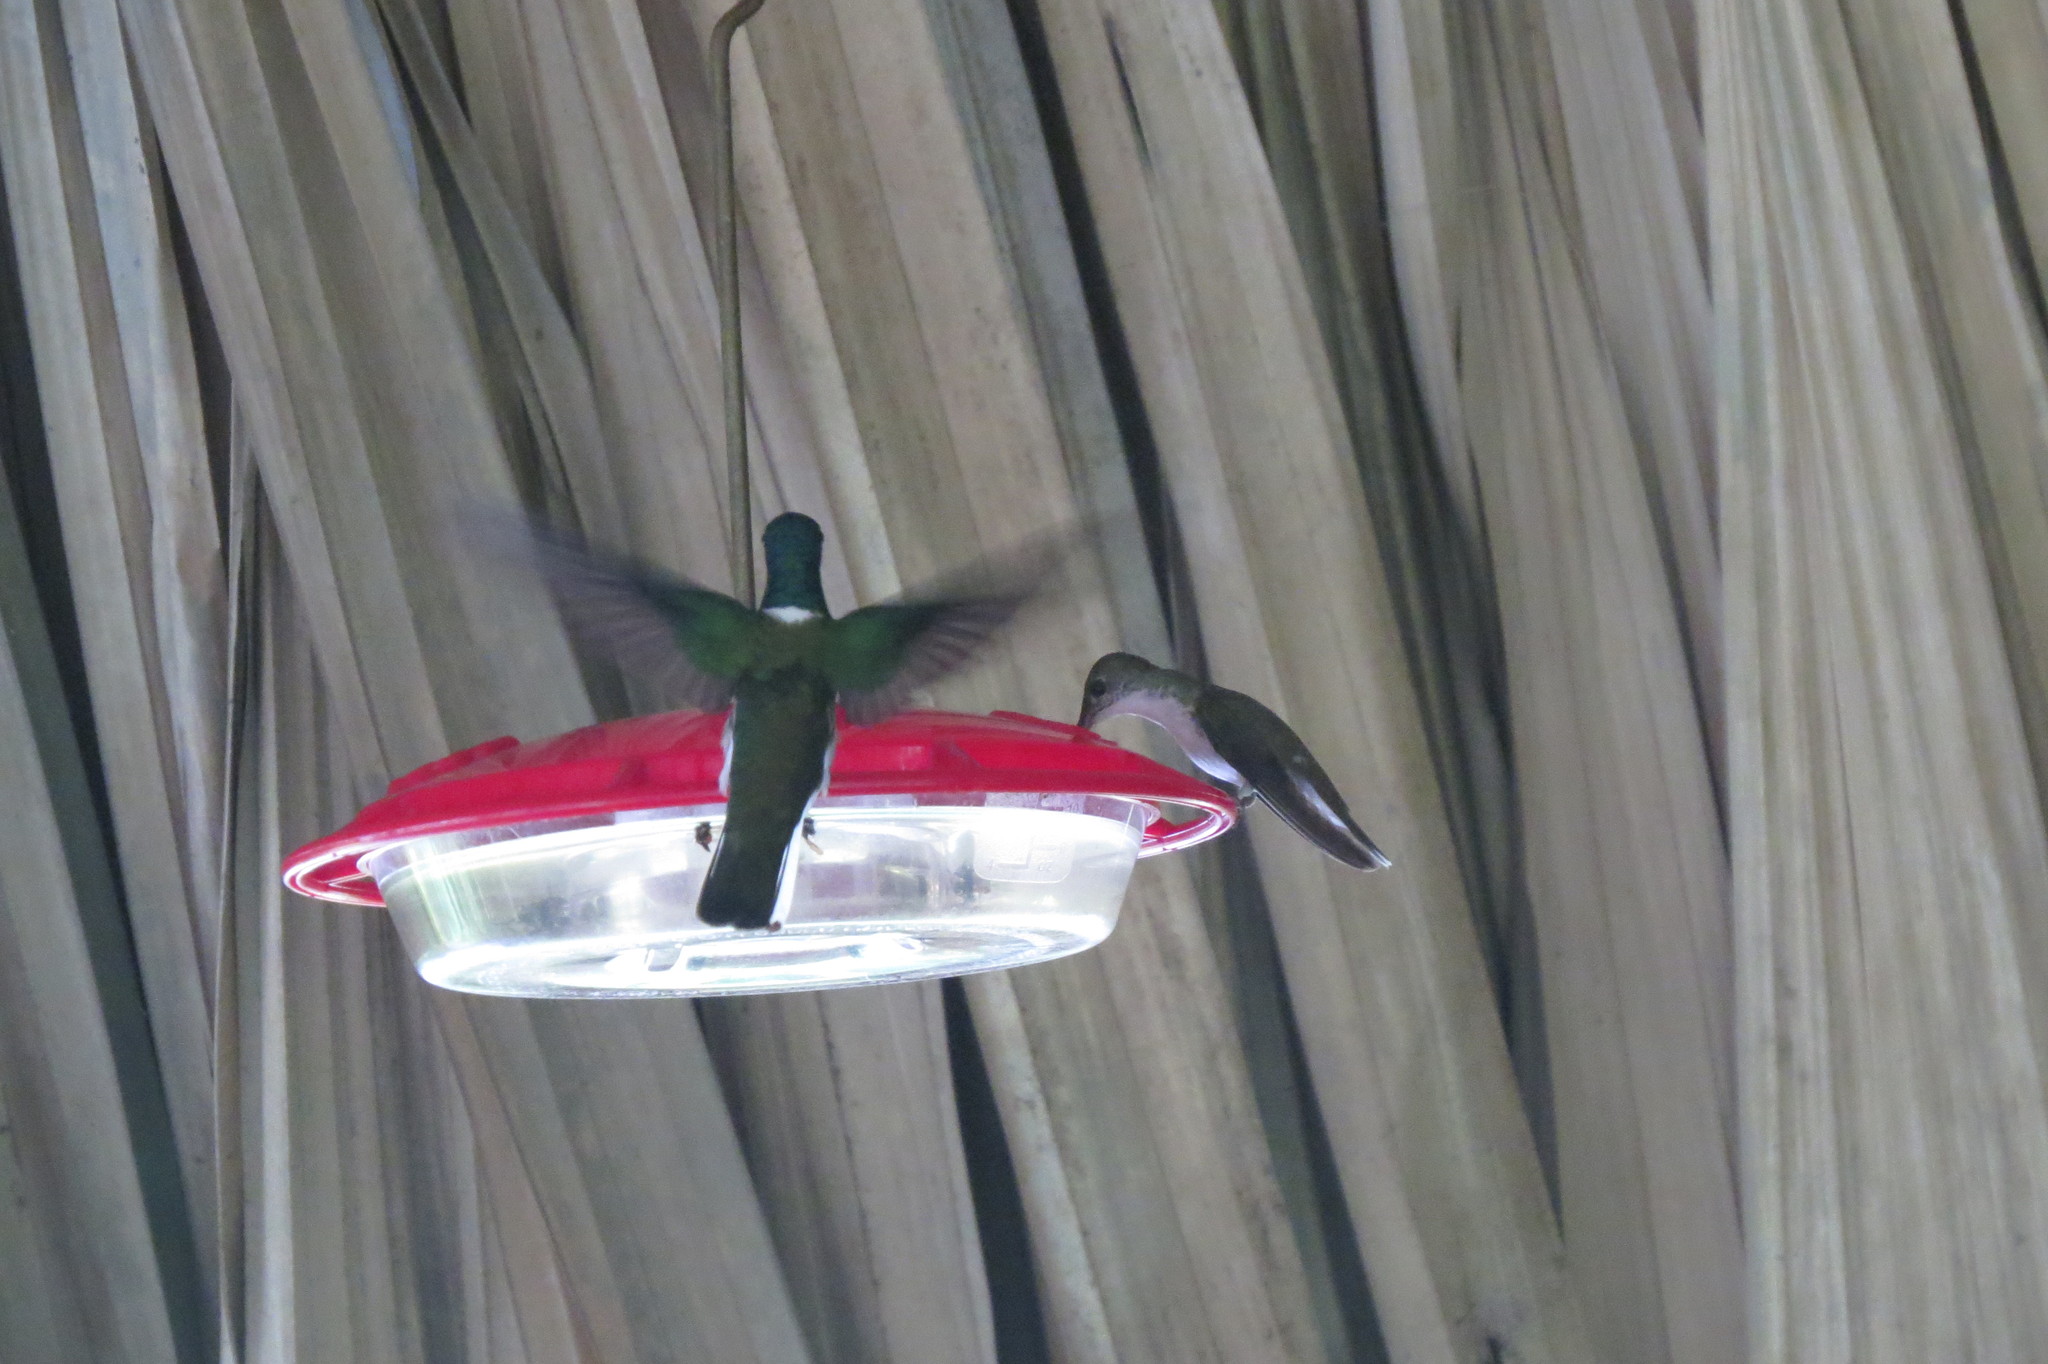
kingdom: Animalia
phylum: Chordata
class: Aves
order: Apodiformes
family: Trochilidae
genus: Florisuga
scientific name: Florisuga mellivora
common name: White-necked jacobin
